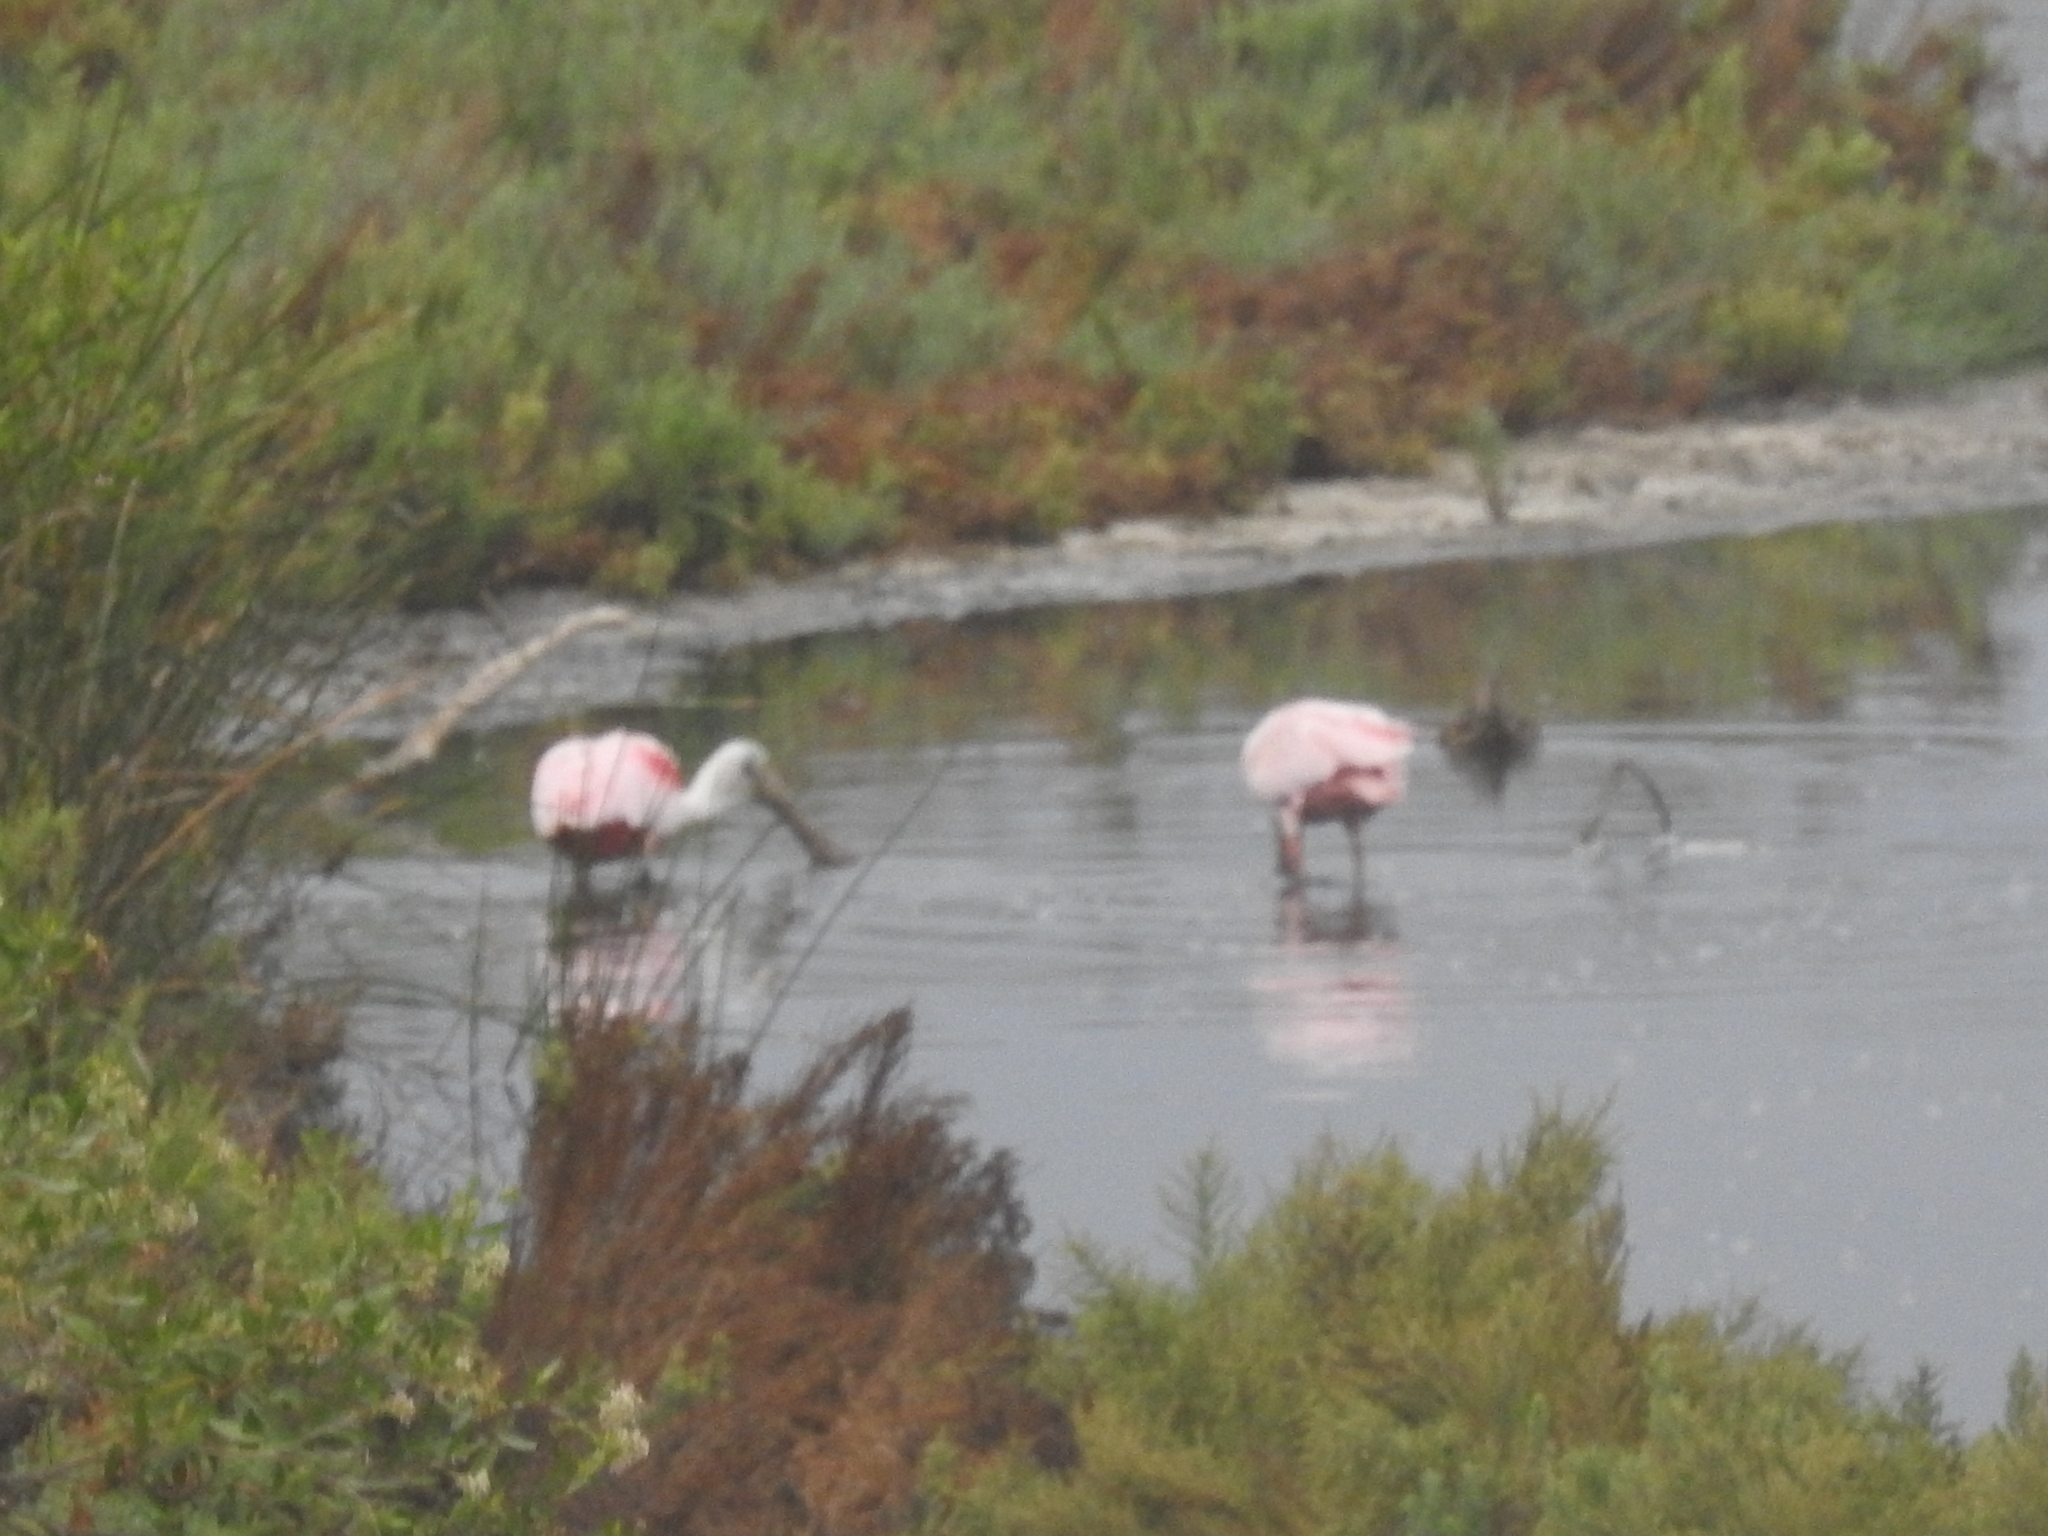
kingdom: Animalia
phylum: Chordata
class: Aves
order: Pelecaniformes
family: Threskiornithidae
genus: Platalea
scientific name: Platalea ajaja
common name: Roseate spoonbill
